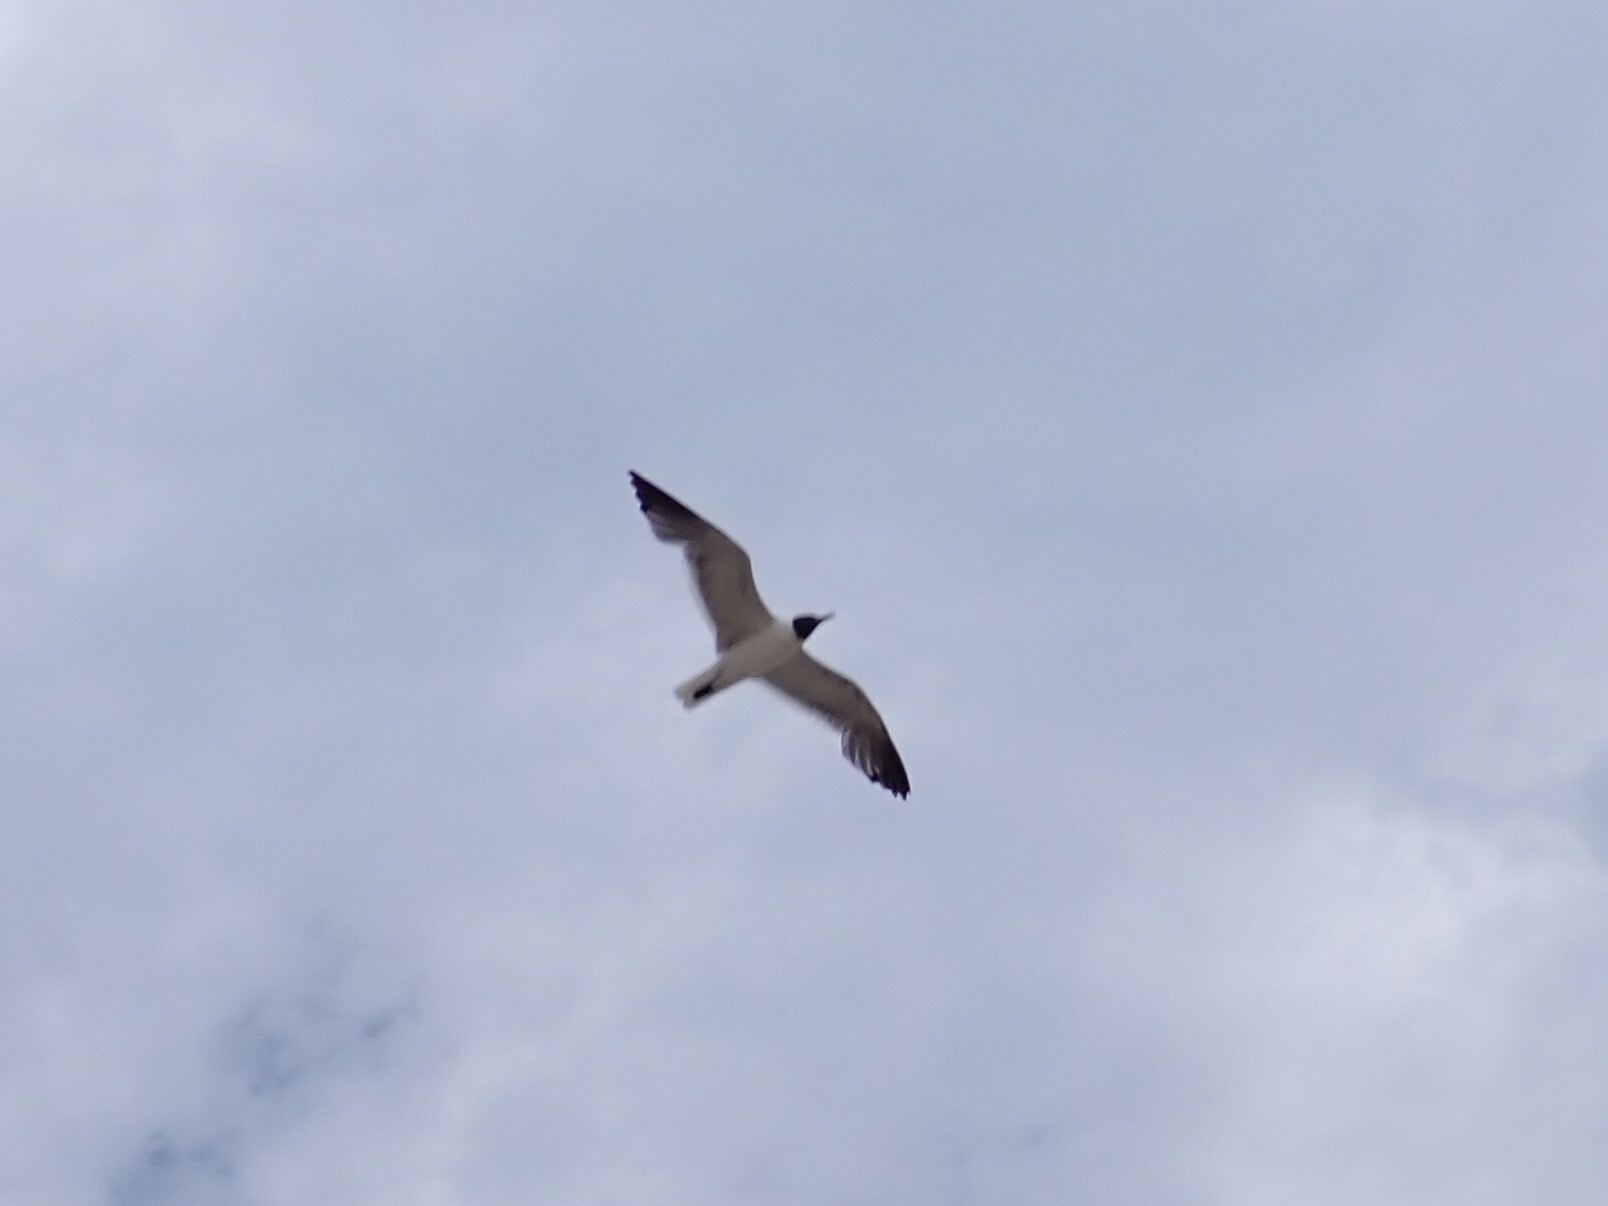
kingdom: Animalia
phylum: Chordata
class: Aves
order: Charadriiformes
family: Laridae
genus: Leucophaeus
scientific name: Leucophaeus atricilla
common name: Laughing gull
